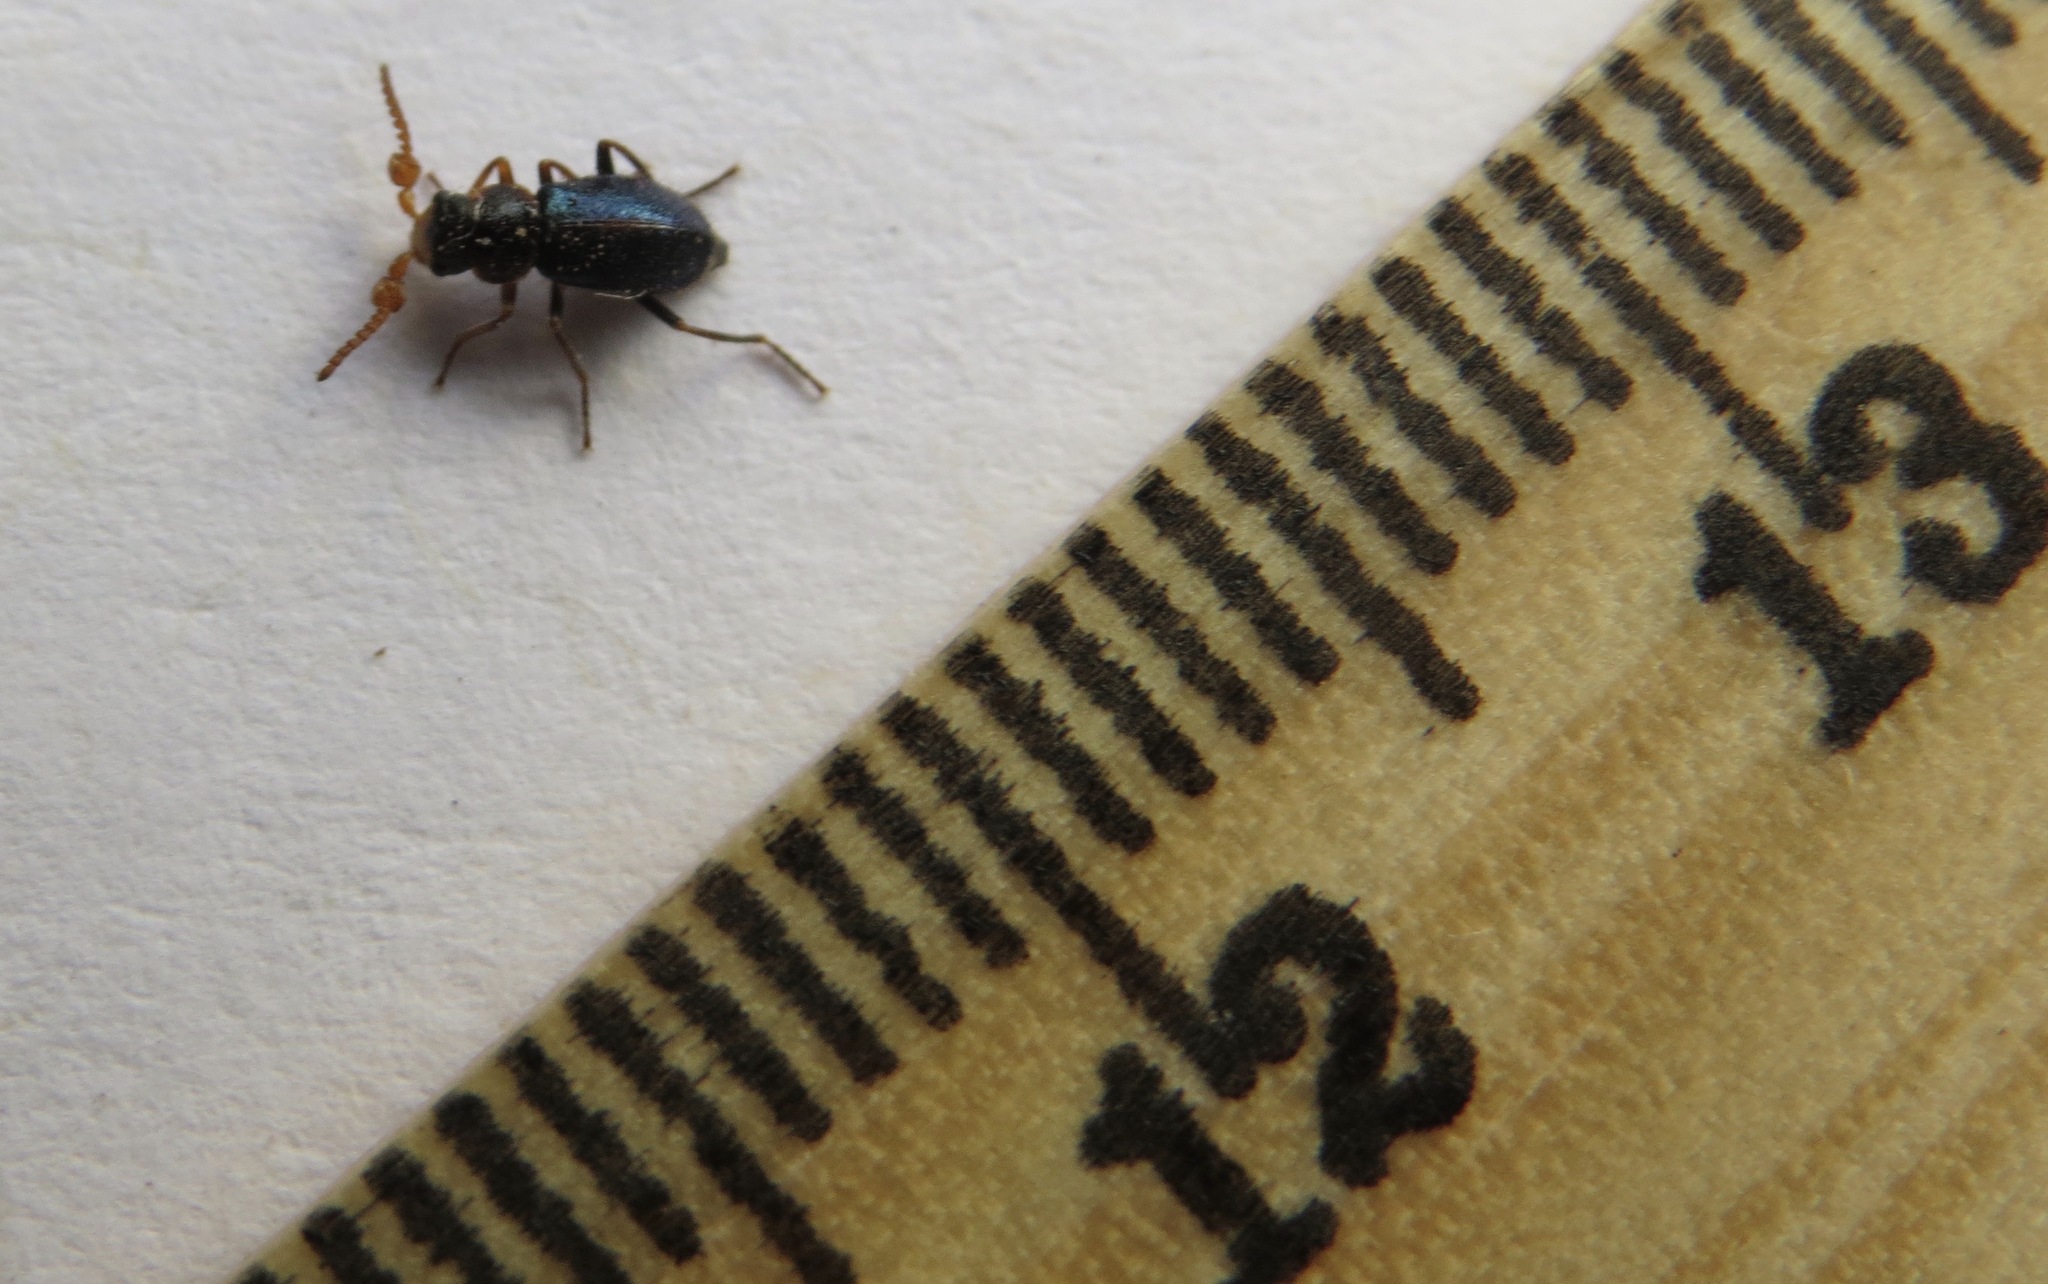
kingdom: Animalia
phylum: Arthropoda
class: Insecta
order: Coleoptera
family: Melyridae
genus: Collops
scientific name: Collops cribrosus
